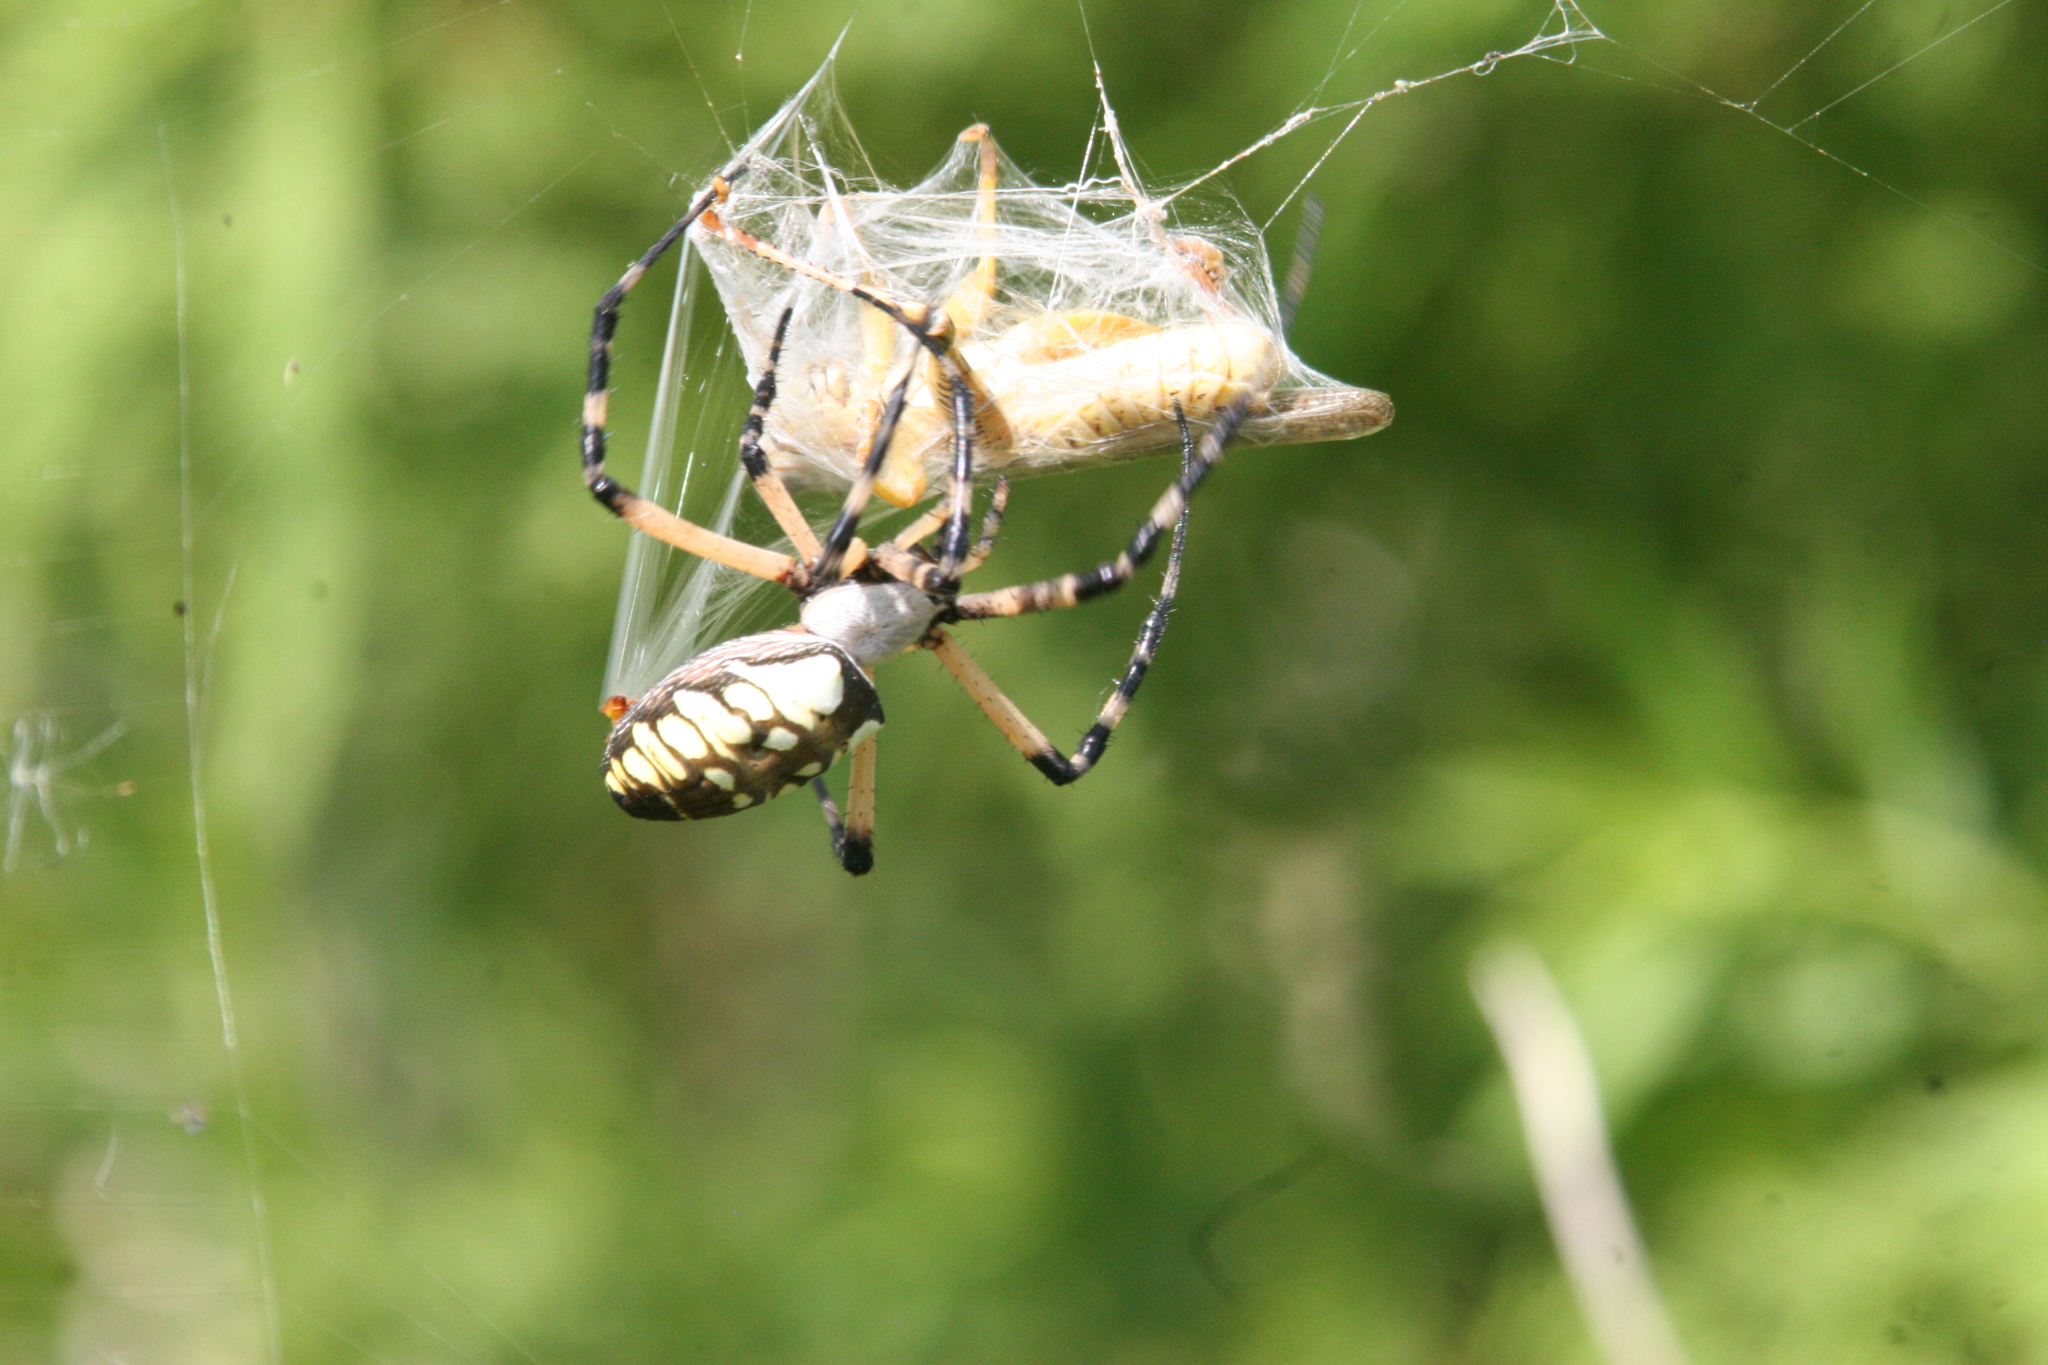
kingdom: Animalia
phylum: Arthropoda
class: Arachnida
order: Araneae
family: Araneidae
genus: Argiope
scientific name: Argiope aurantia
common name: Orb weavers
